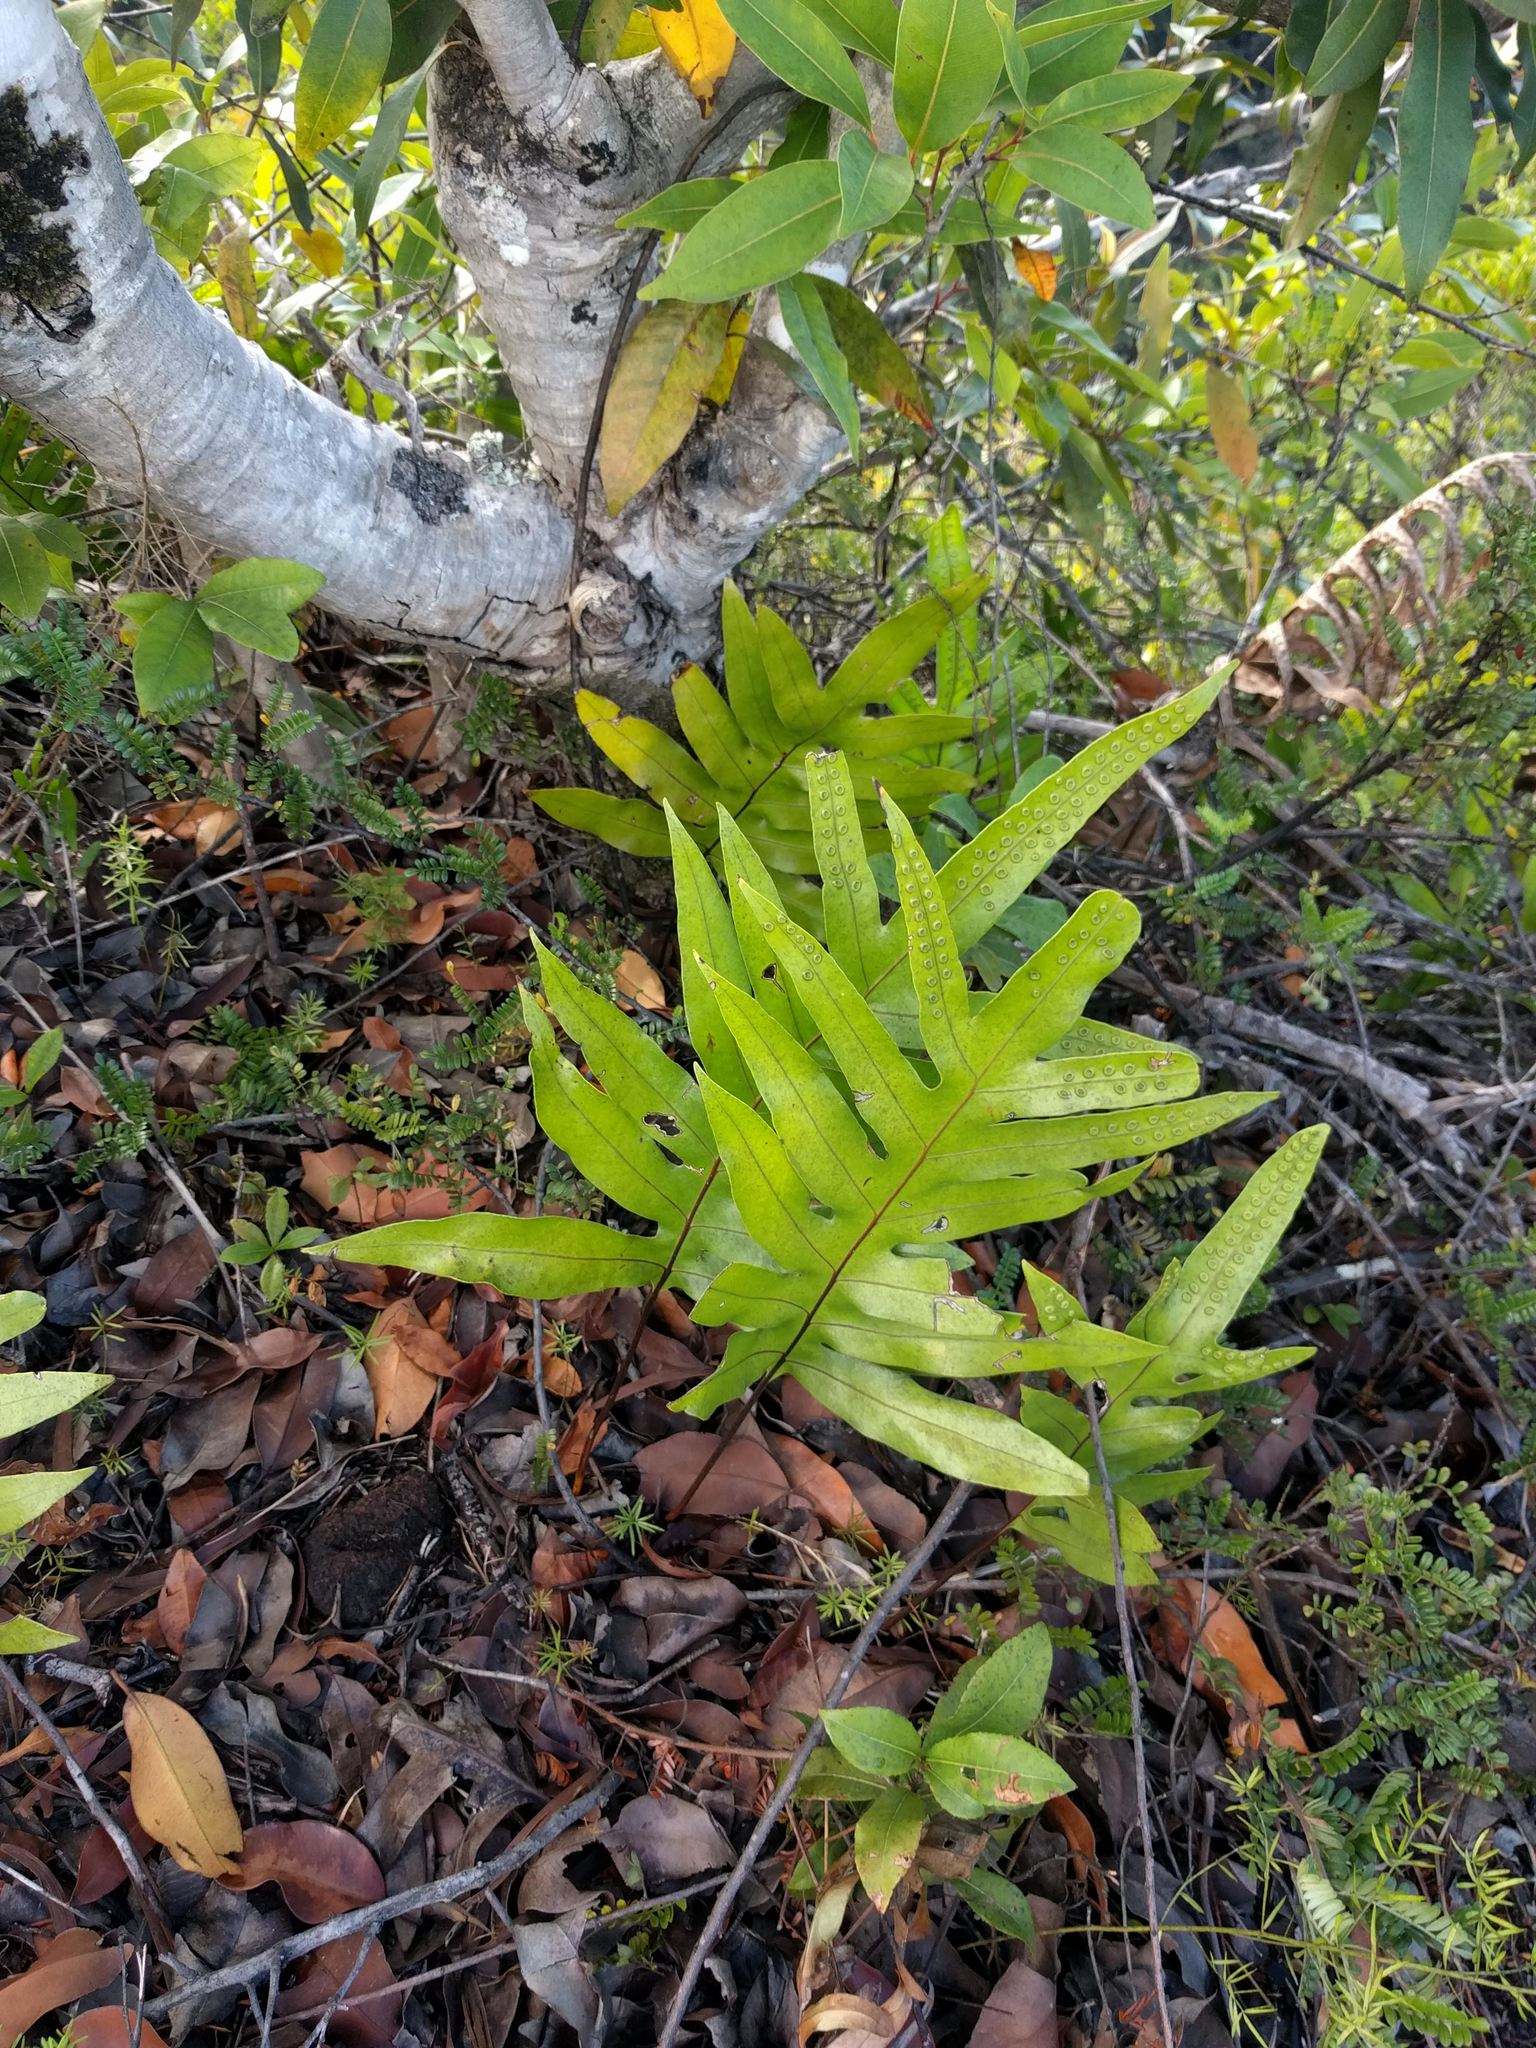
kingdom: Plantae
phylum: Tracheophyta
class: Polypodiopsida
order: Polypodiales
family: Polypodiaceae
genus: Microsorum
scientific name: Microsorum grossum
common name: Musk fern
